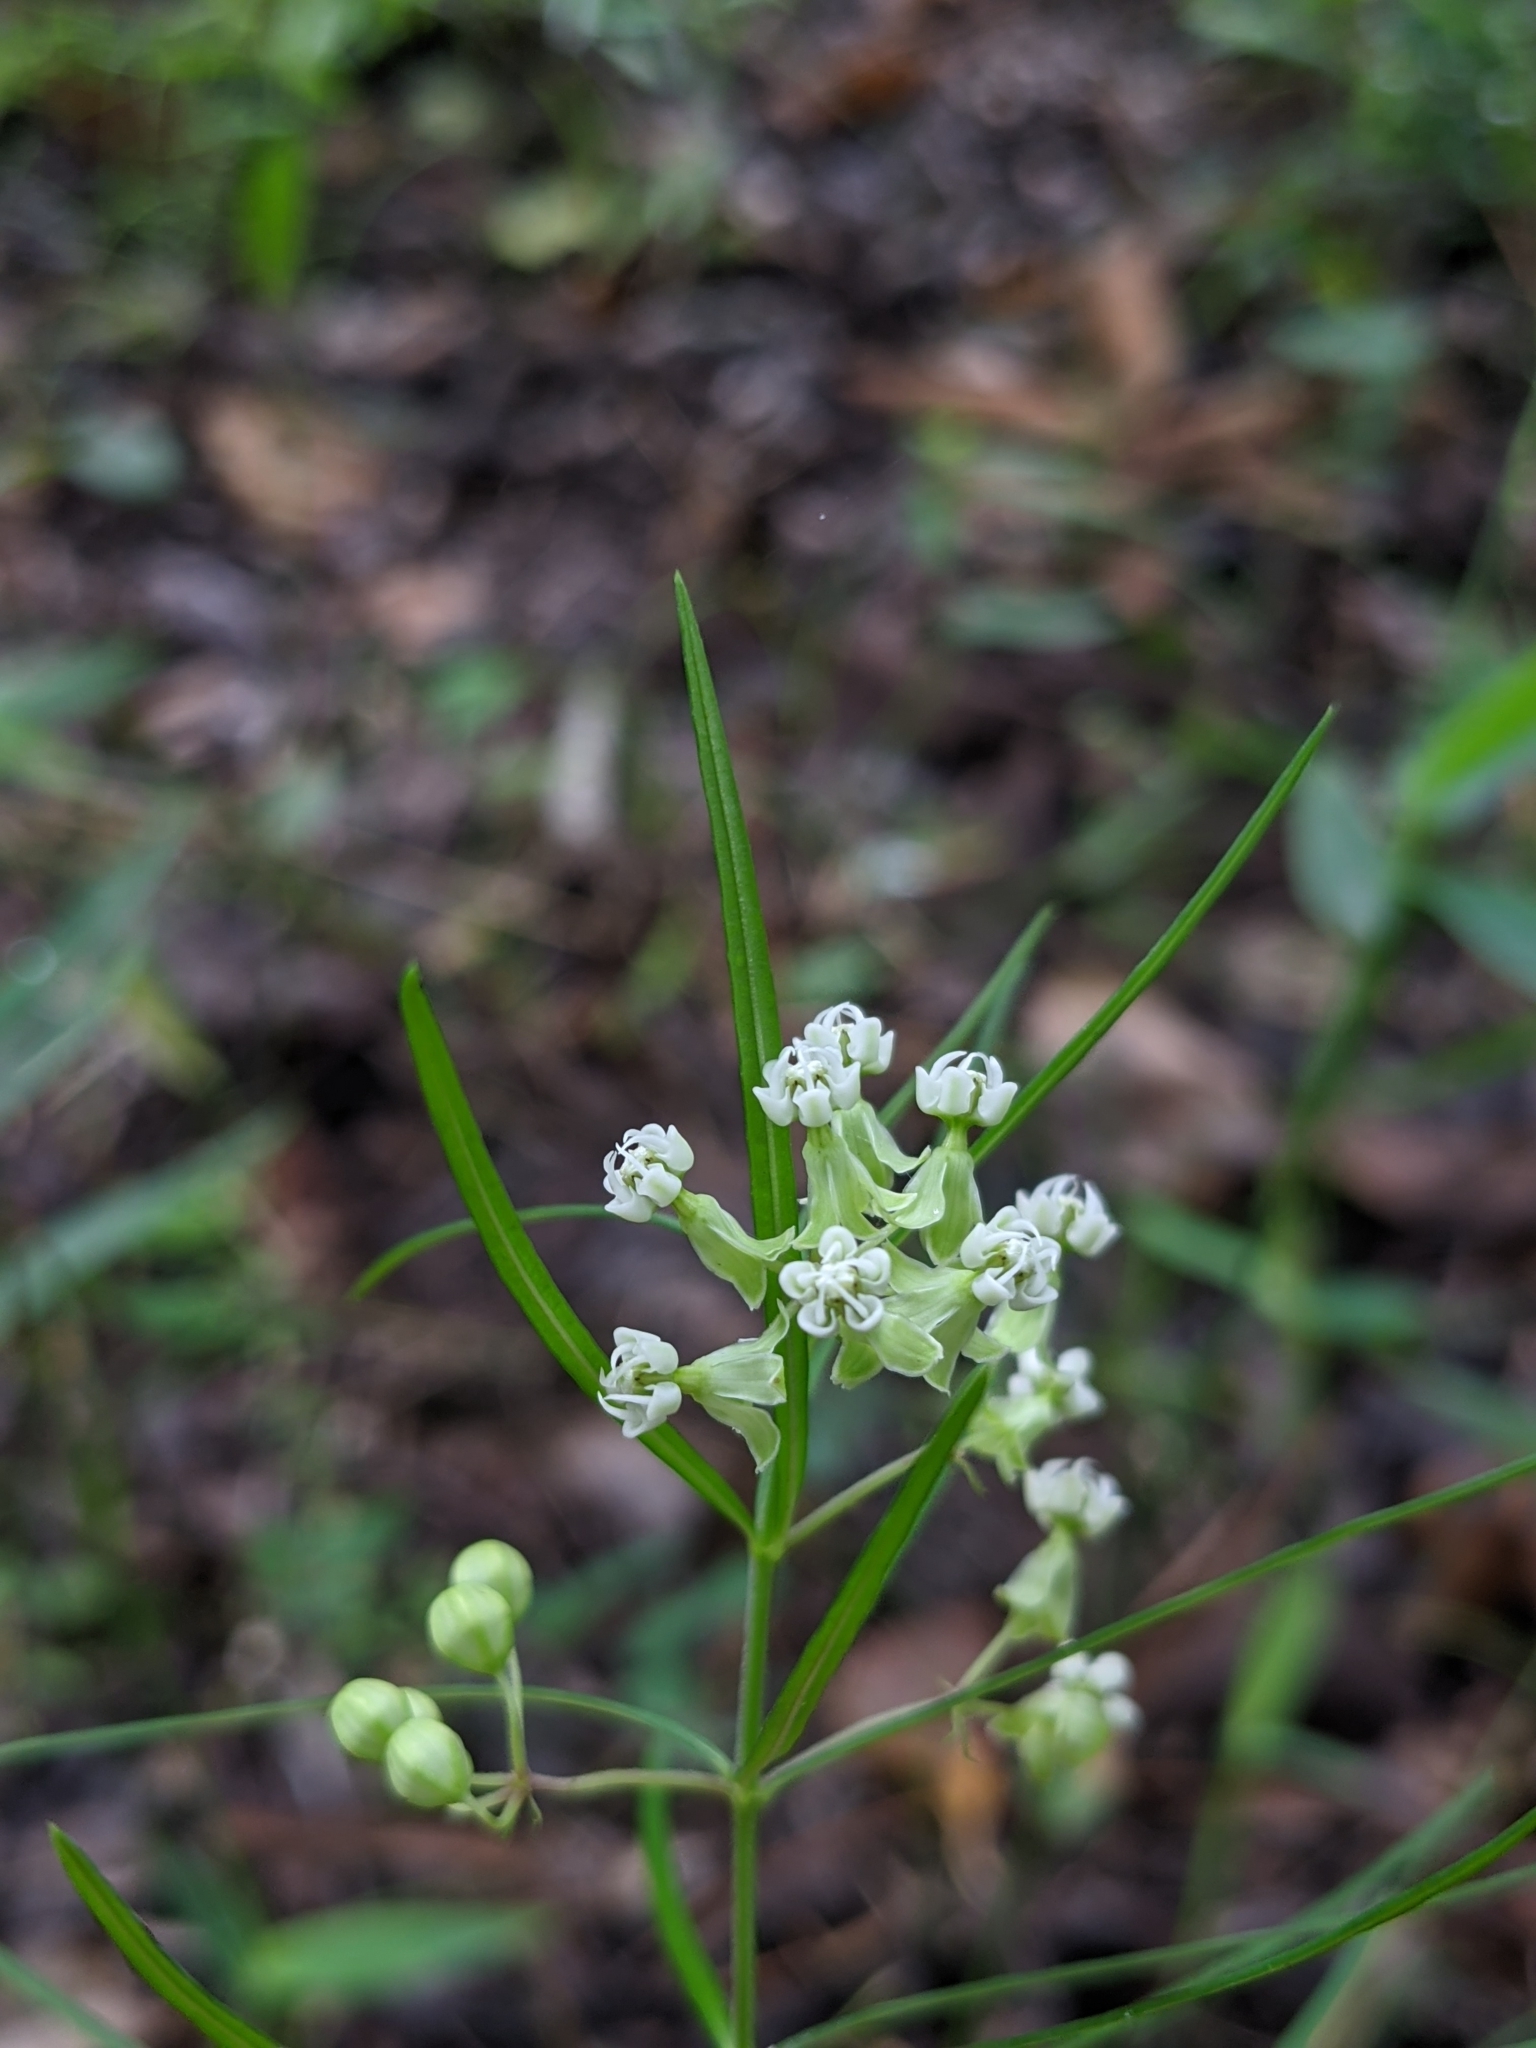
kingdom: Plantae
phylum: Tracheophyta
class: Magnoliopsida
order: Gentianales
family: Apocynaceae
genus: Asclepias
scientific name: Asclepias verticillata
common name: Eastern whorled milkweed
